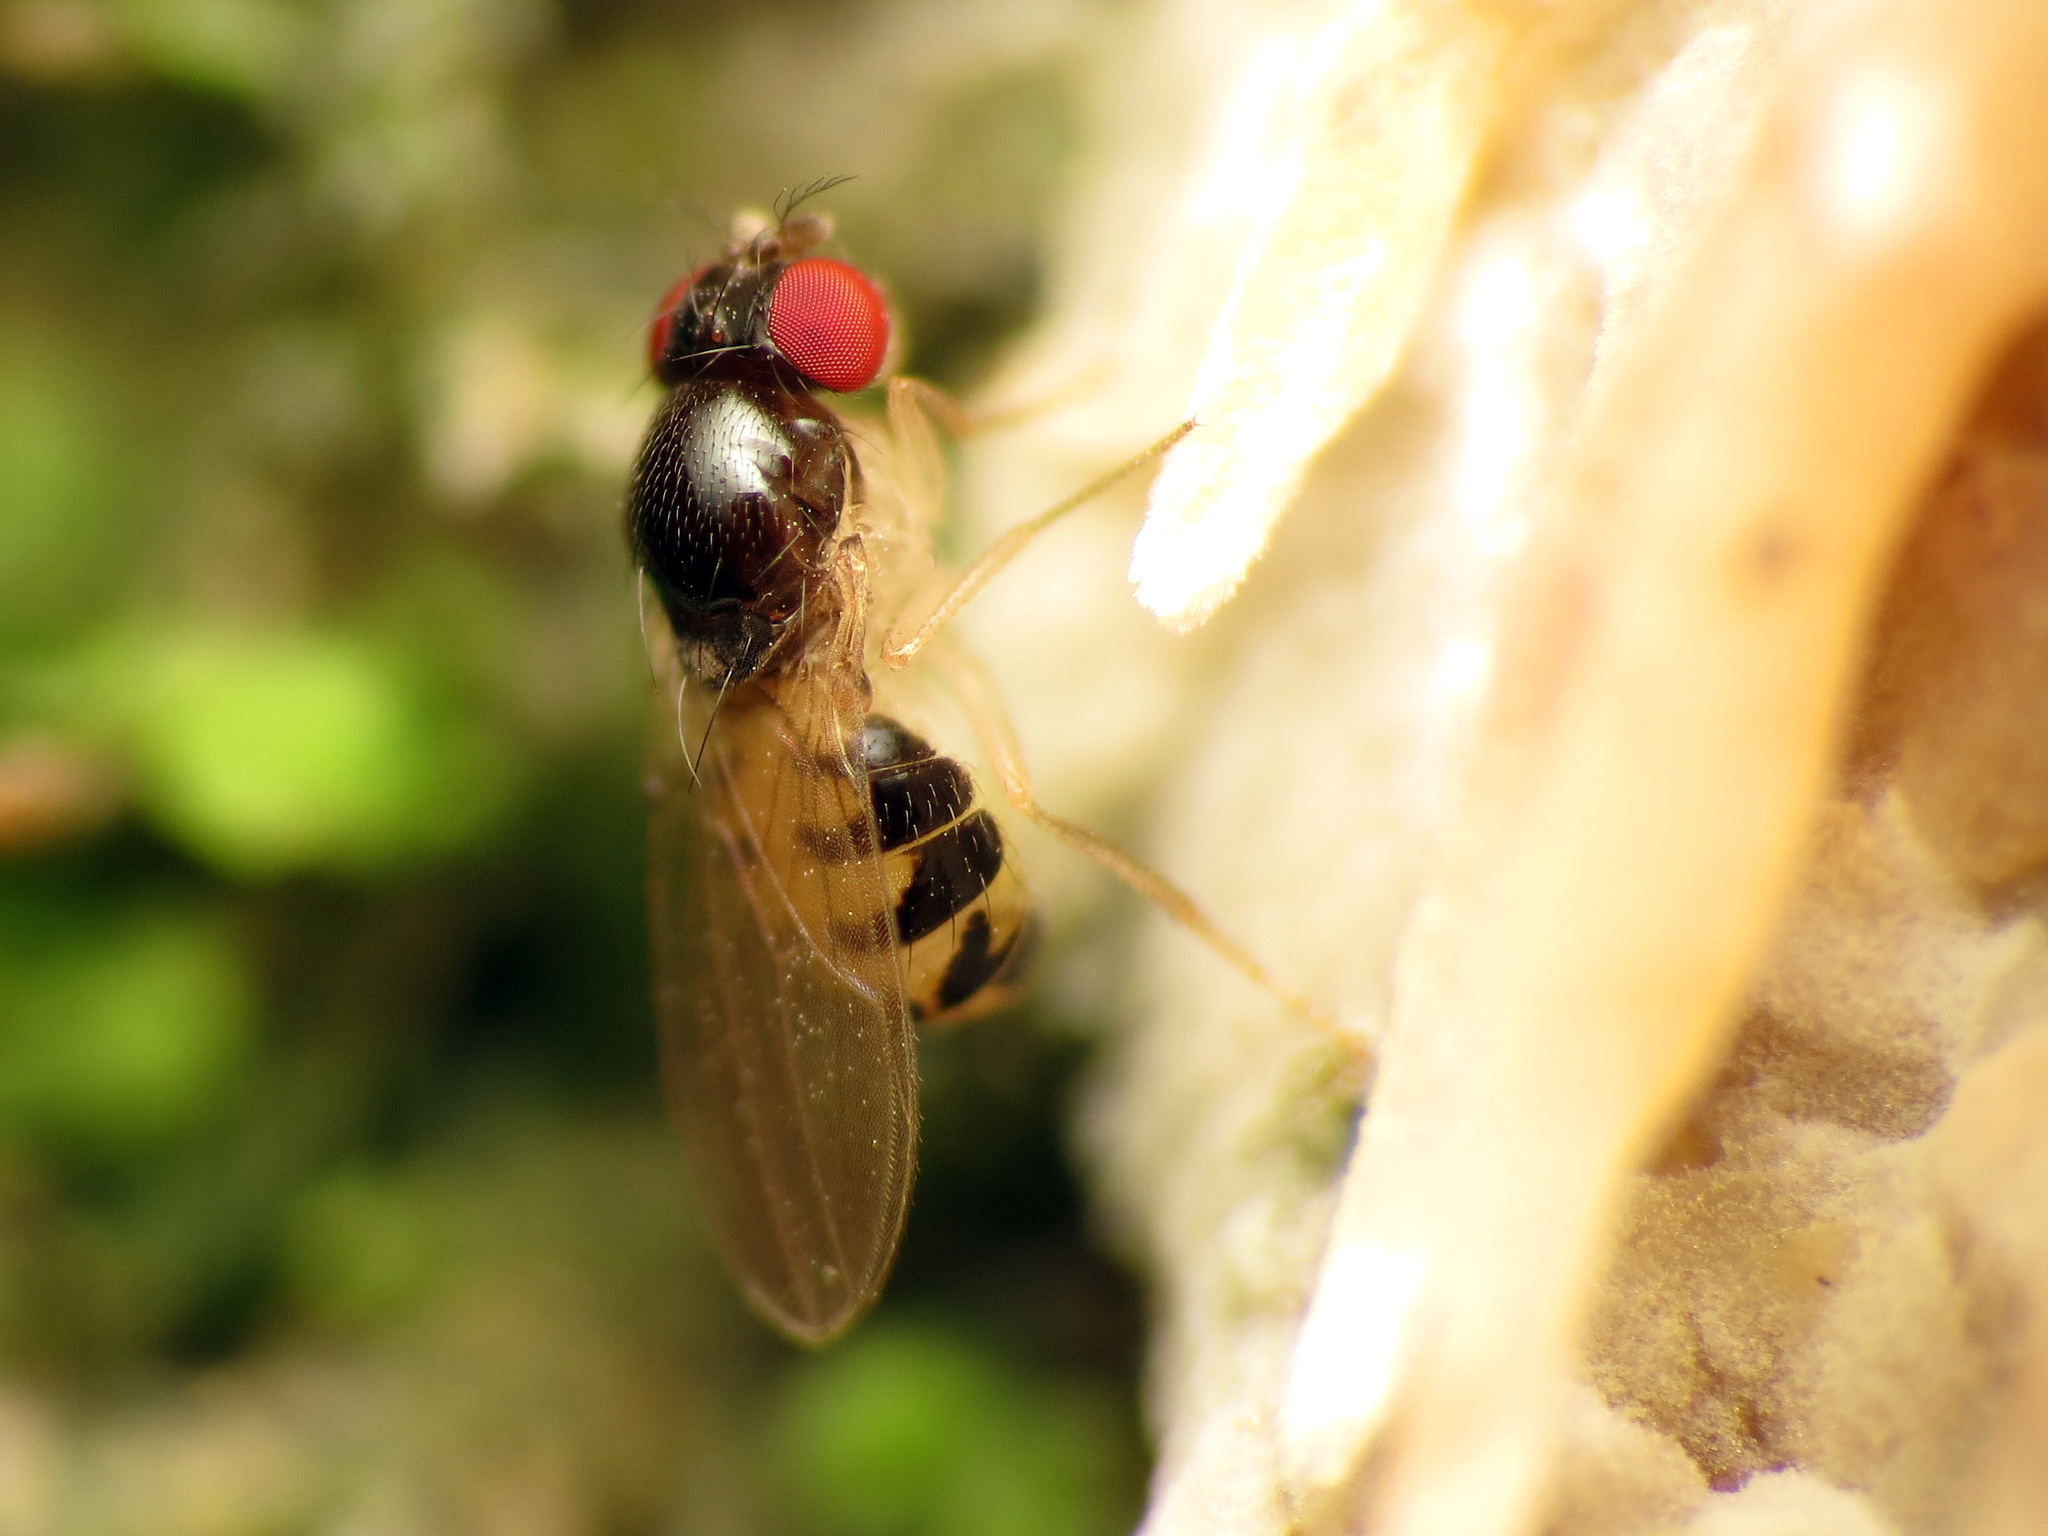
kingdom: Animalia
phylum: Arthropoda
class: Insecta
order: Diptera
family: Drosophilidae
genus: Mycodrosophila
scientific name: Mycodrosophila claytonae
